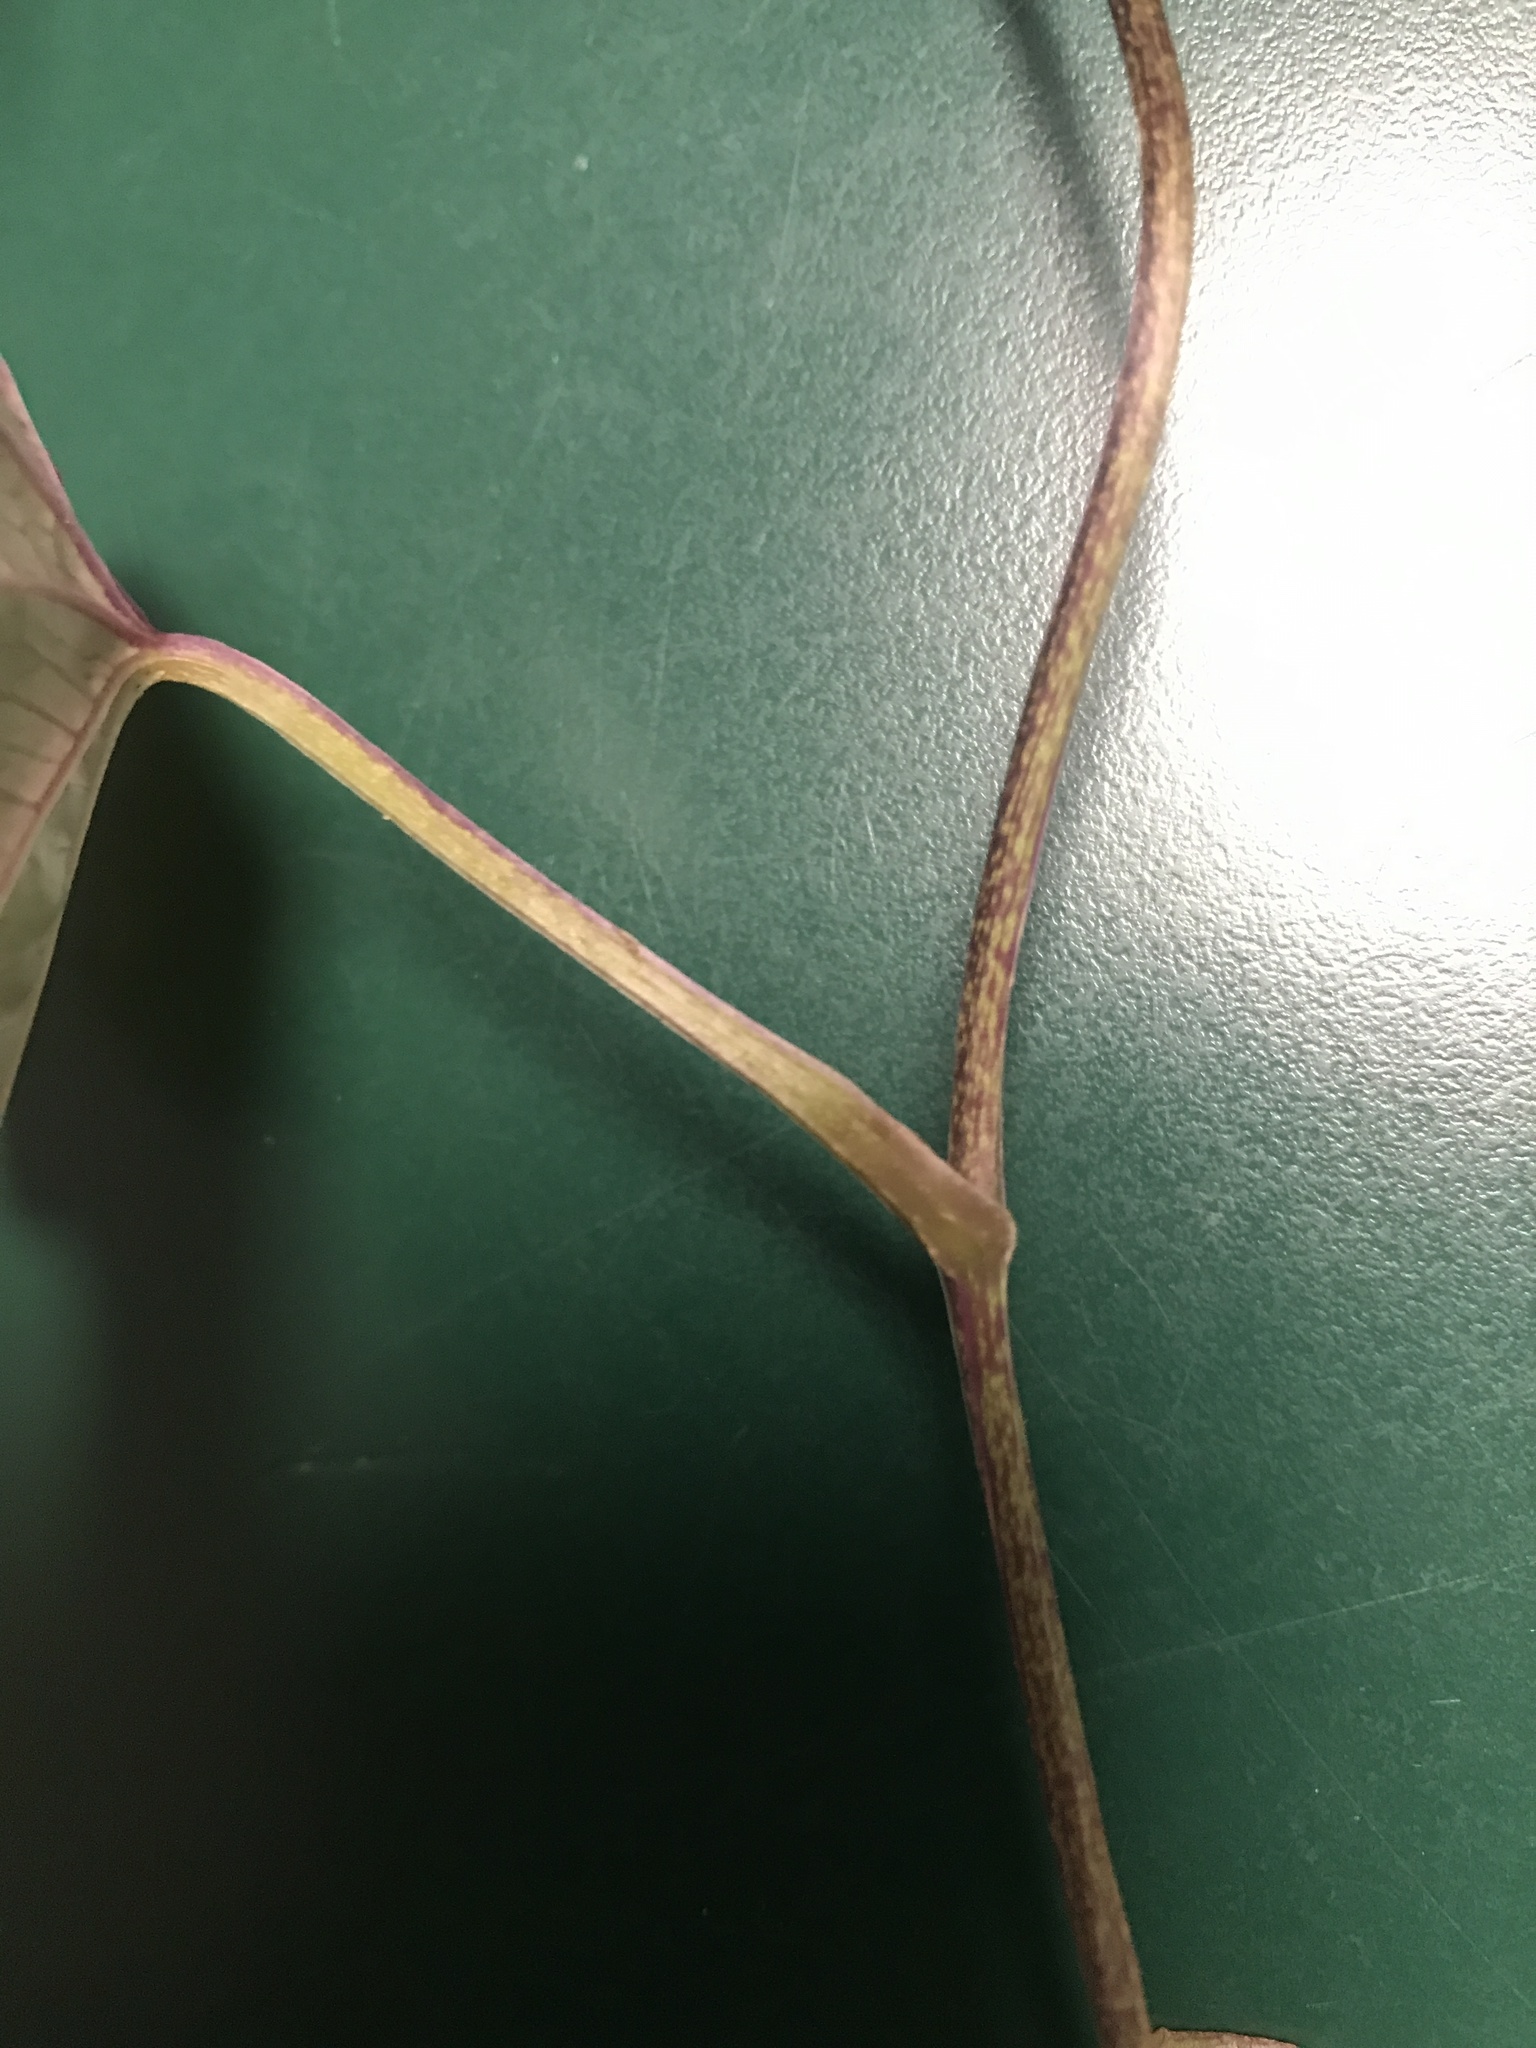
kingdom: Plantae
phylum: Tracheophyta
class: Liliopsida
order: Dioscoreales
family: Dioscoreaceae
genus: Dioscorea
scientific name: Dioscorea polystachya
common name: Chinese yam
